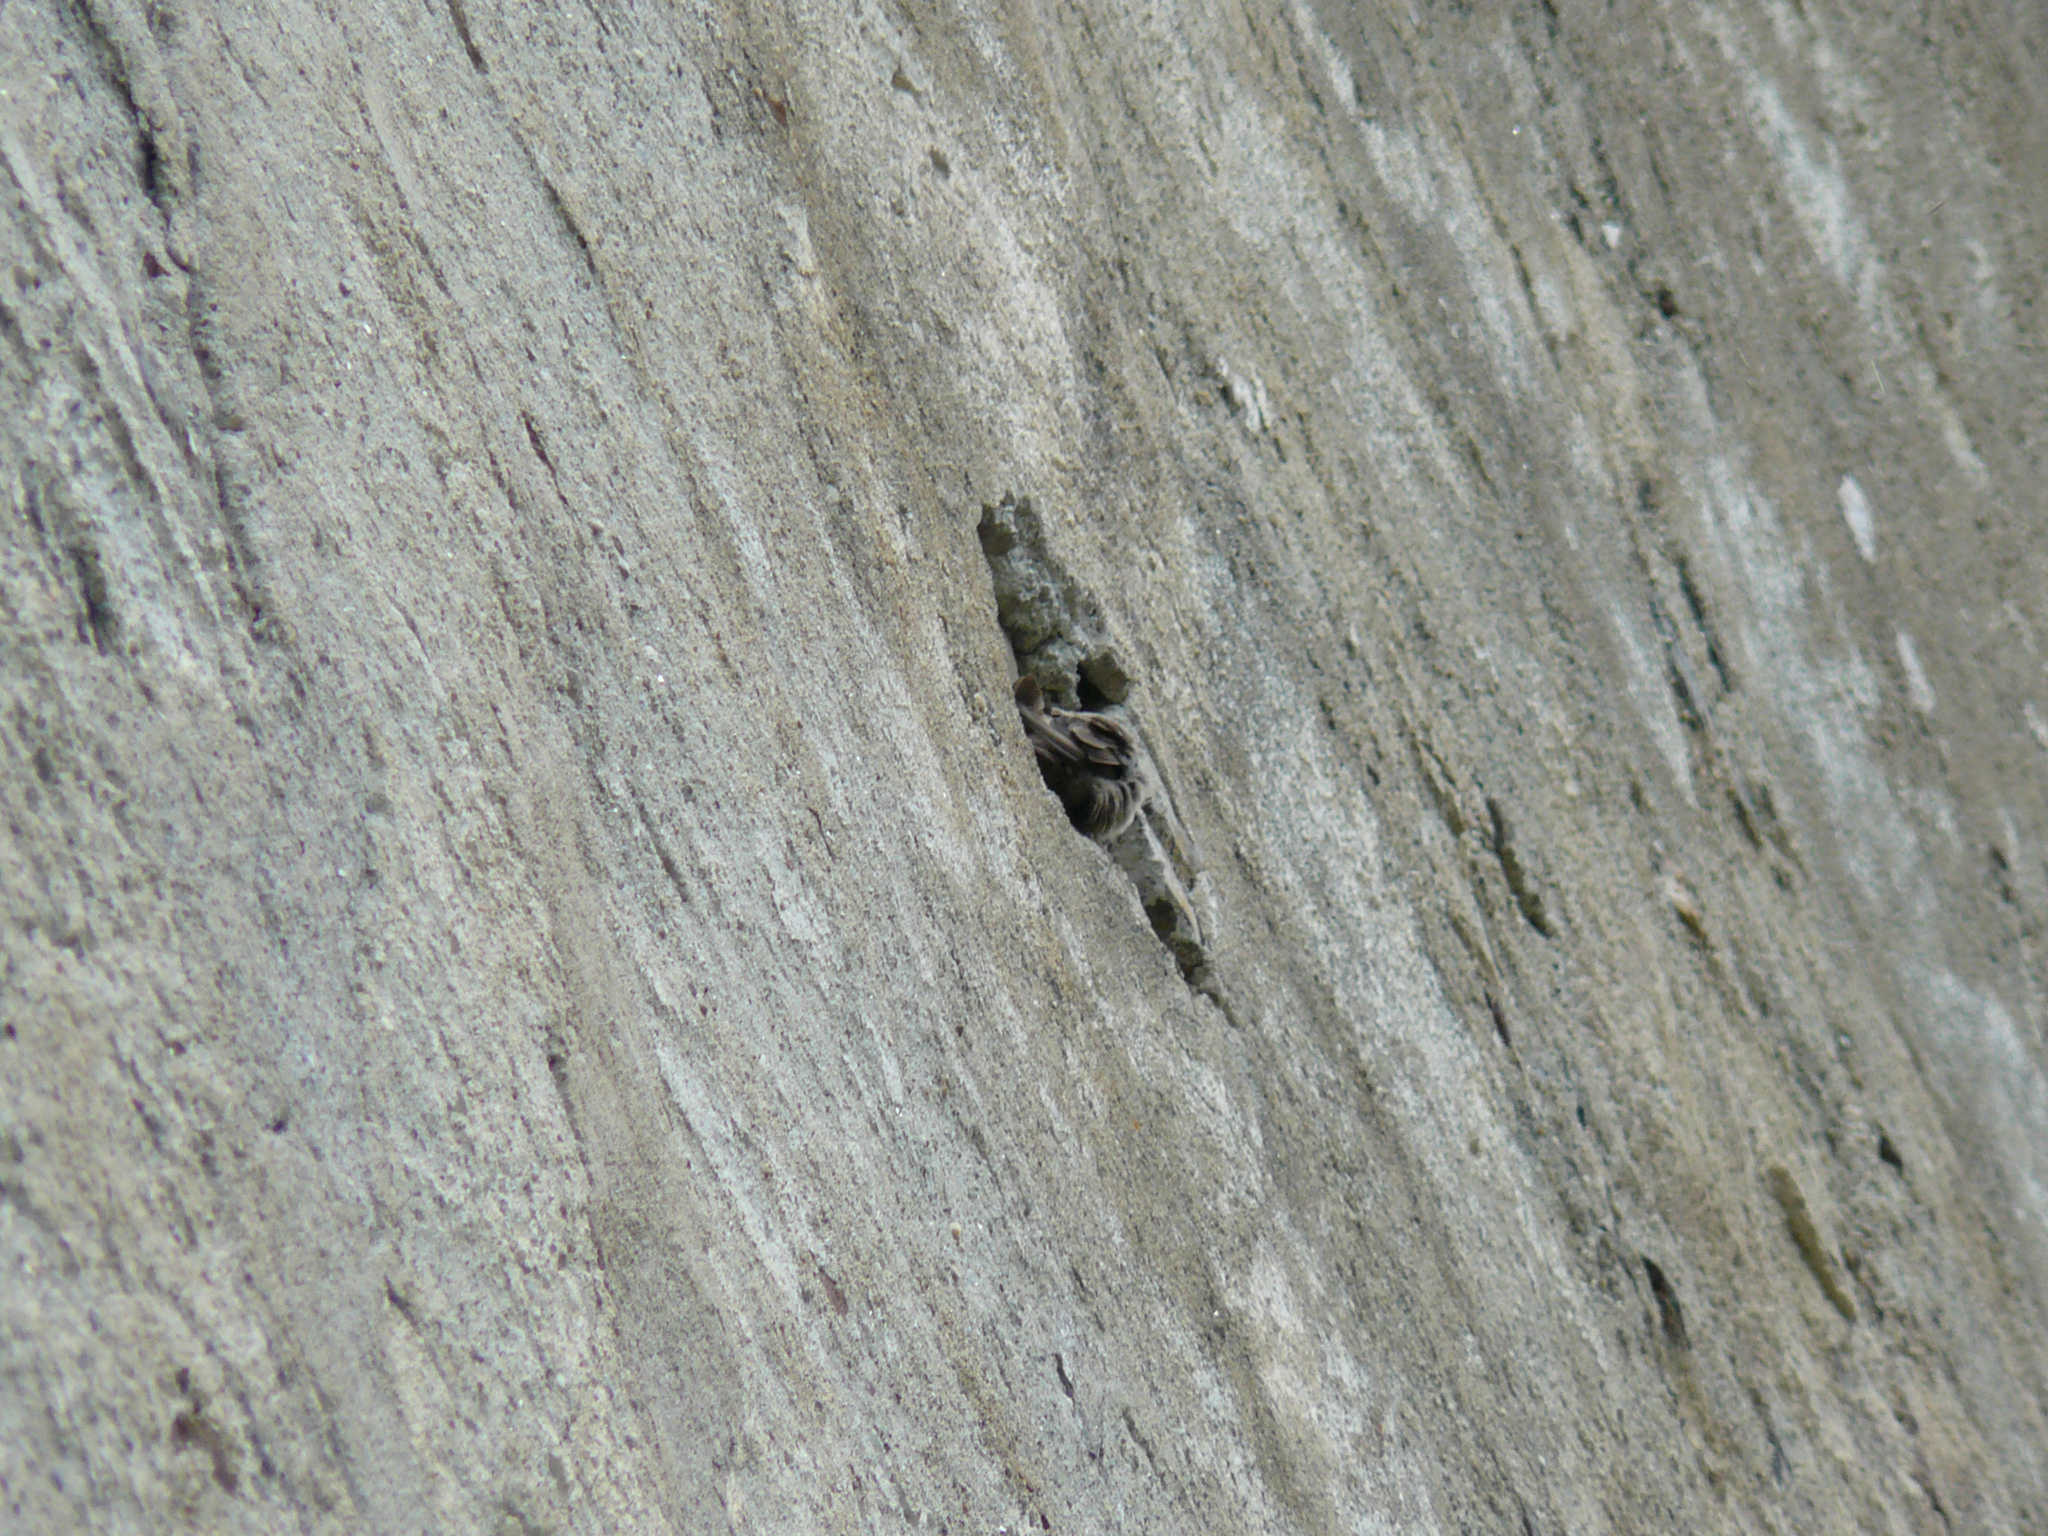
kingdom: Animalia
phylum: Chordata
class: Aves
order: Passeriformes
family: Hirundinidae
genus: Ptyonoprogne
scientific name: Ptyonoprogne rupestris
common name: Eurasian crag martin
